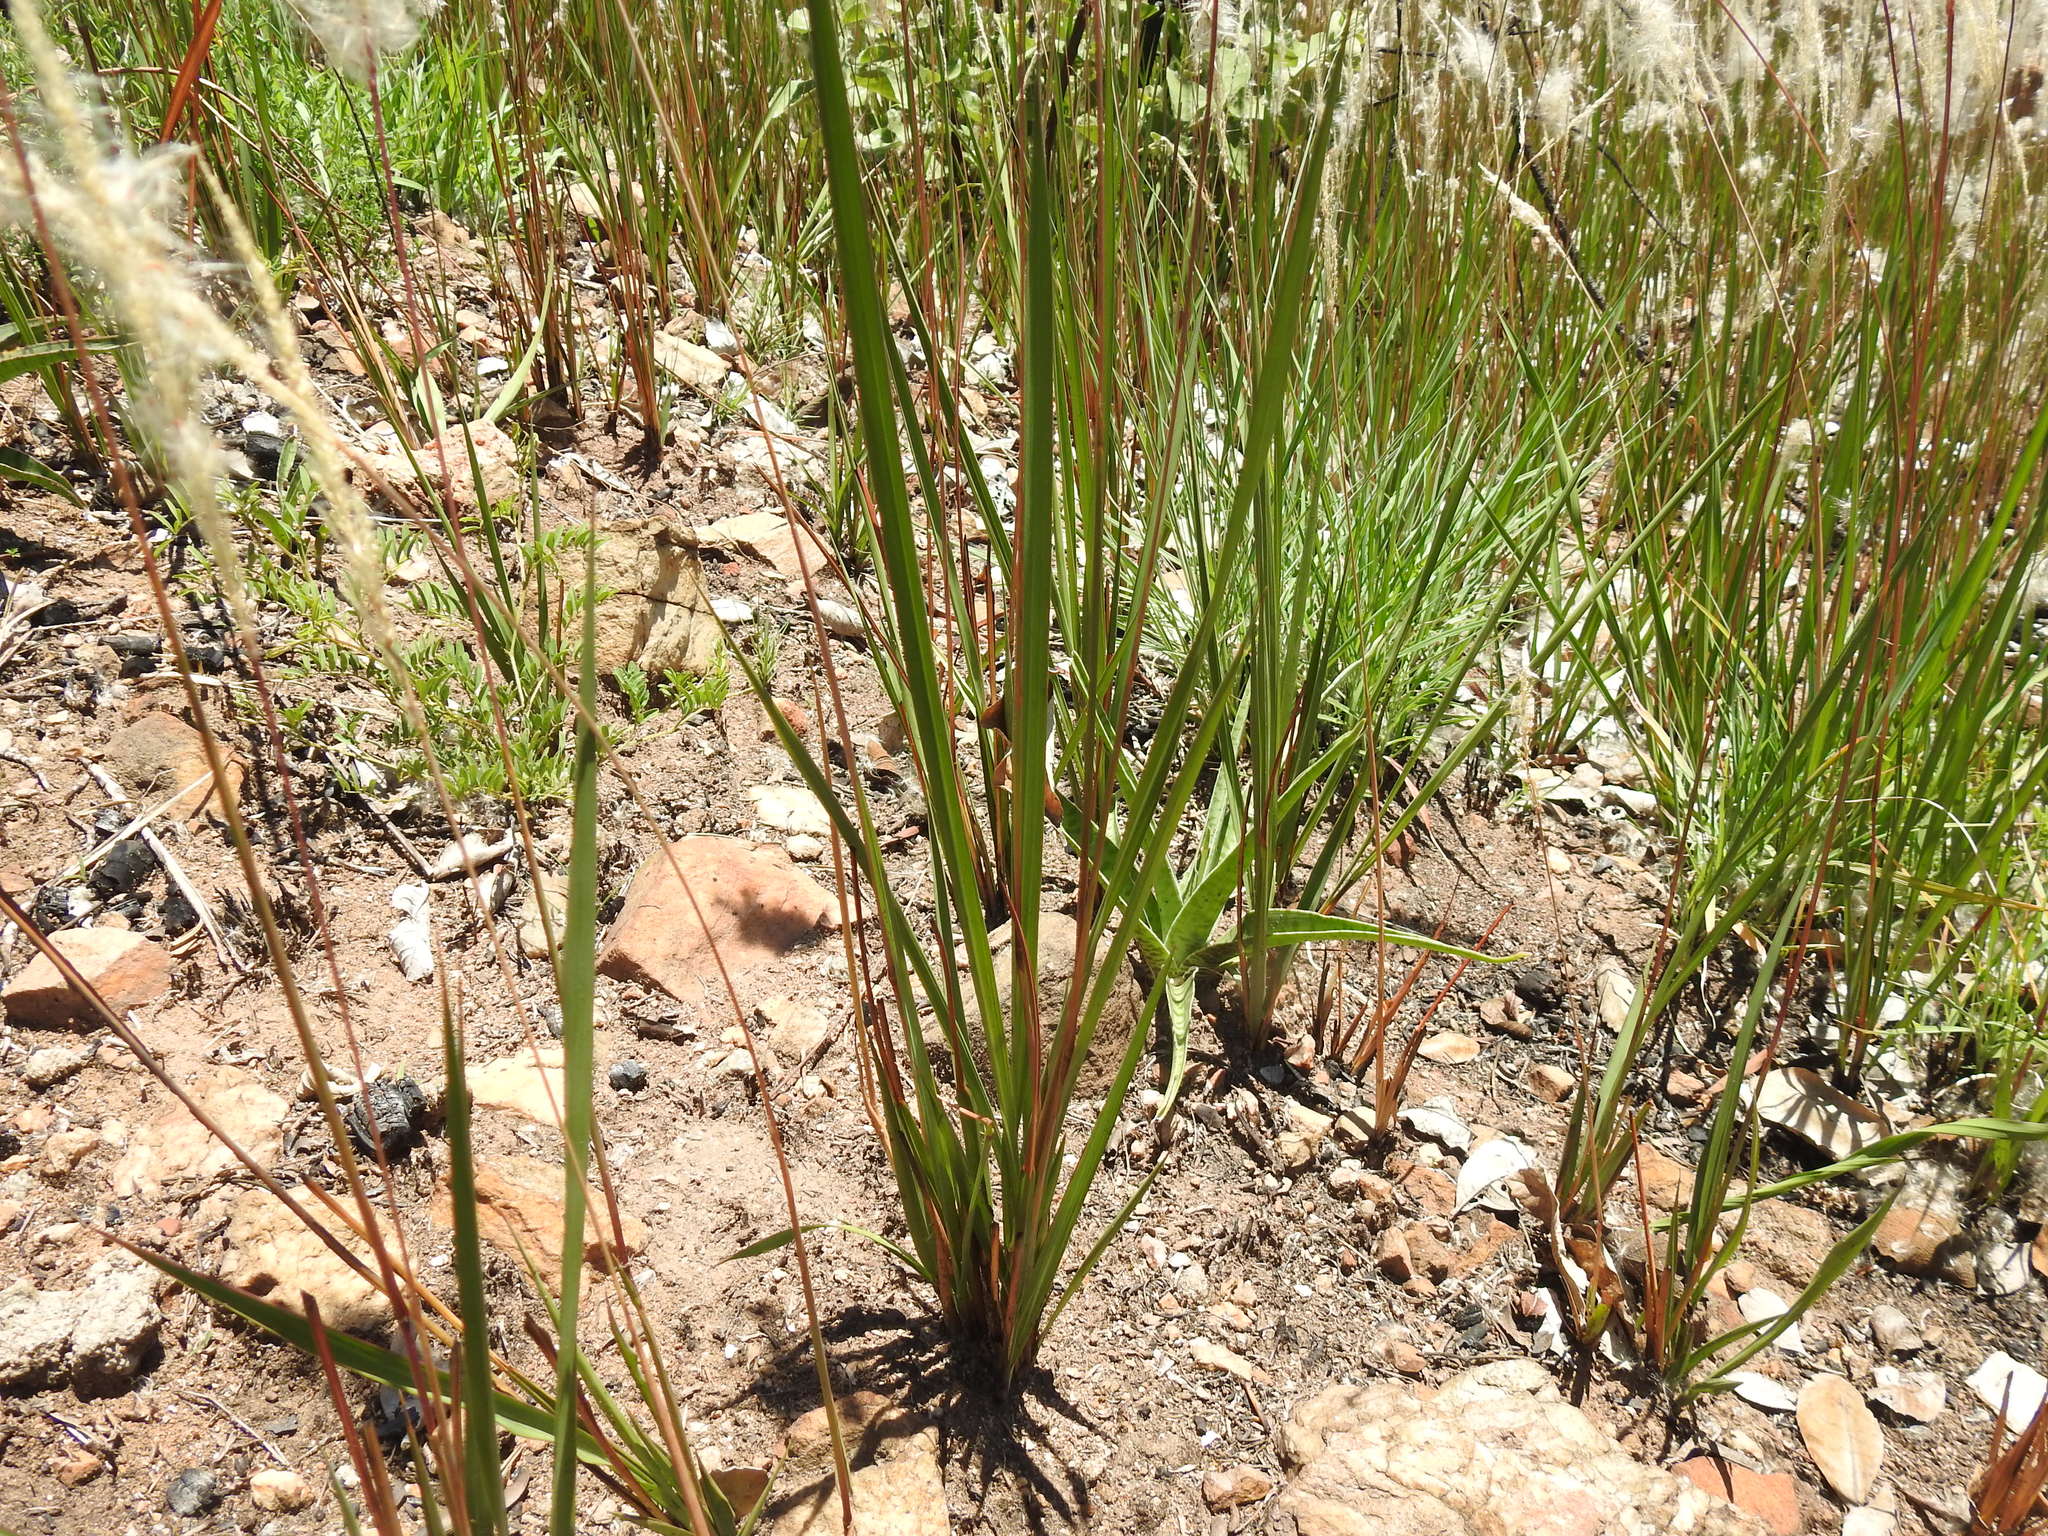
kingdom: Plantae
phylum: Tracheophyta
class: Liliopsida
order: Poales
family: Poaceae
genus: Imperata
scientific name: Imperata cylindrica
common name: Cogongrass
